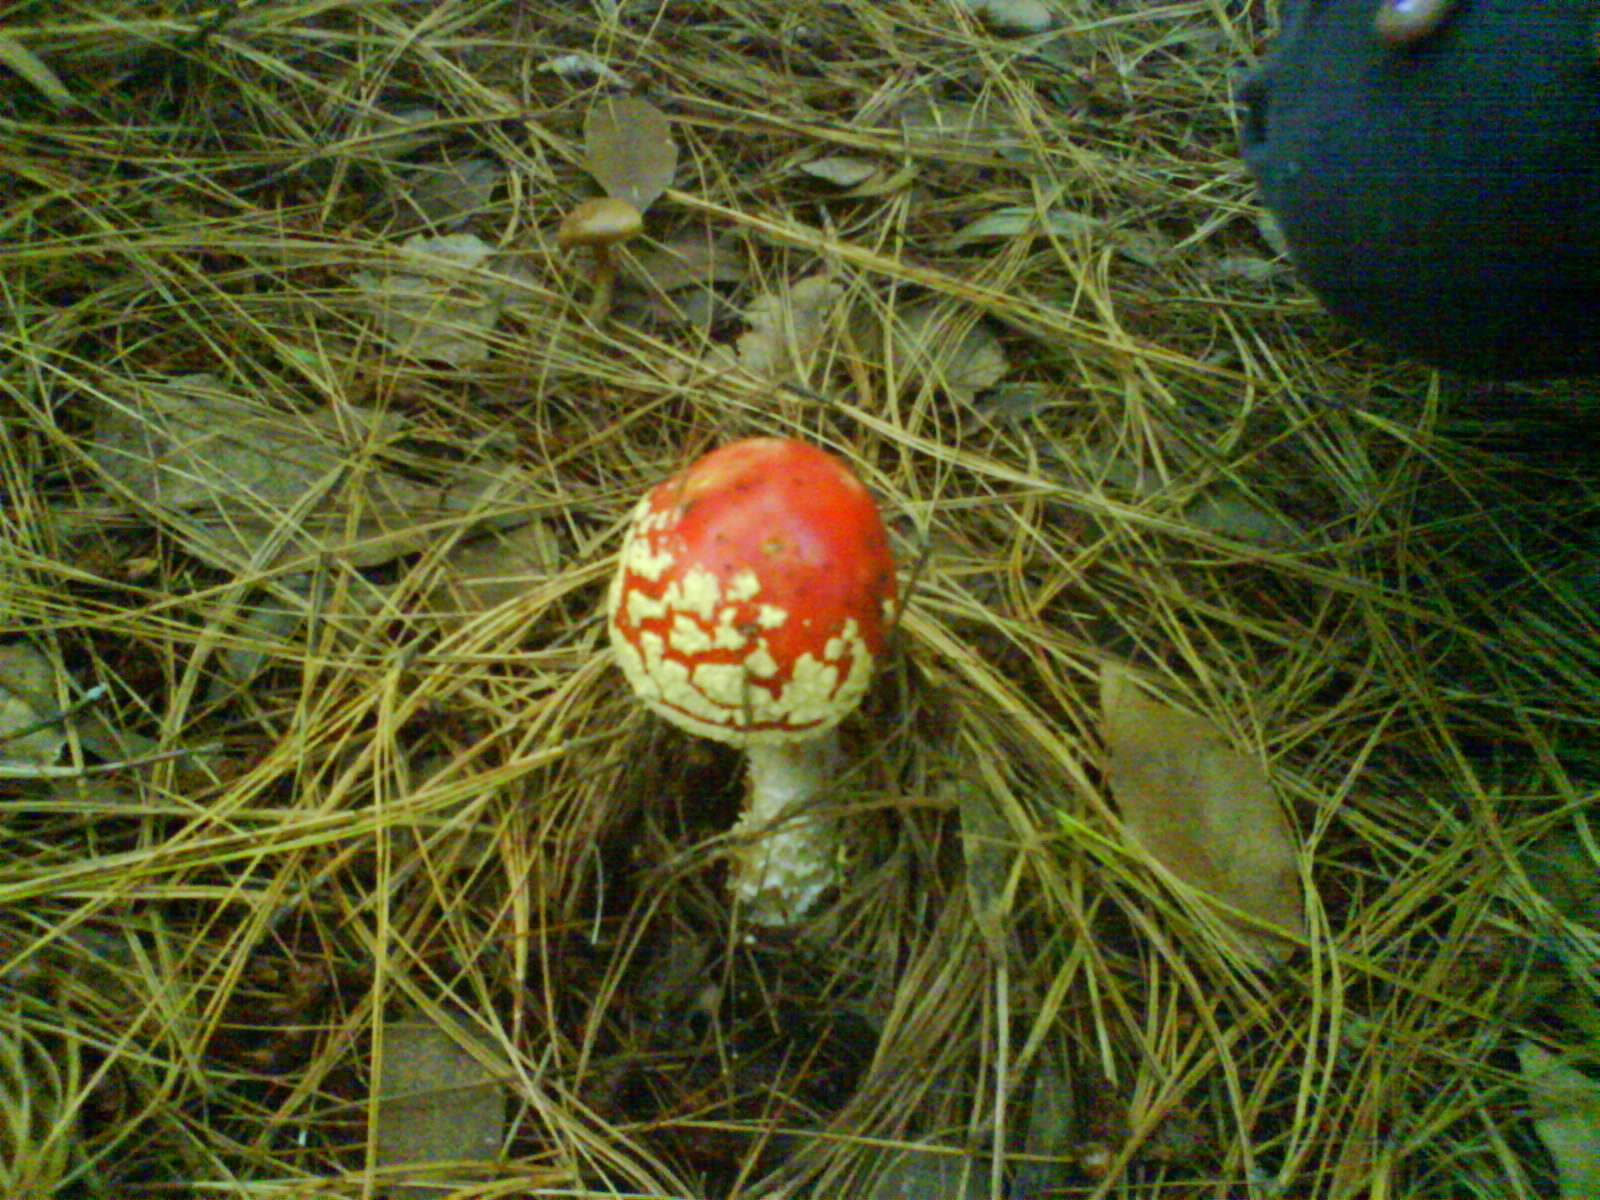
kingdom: Fungi
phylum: Basidiomycota
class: Agaricomycetes
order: Agaricales
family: Amanitaceae
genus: Amanita
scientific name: Amanita muscaria
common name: Fly agaric
